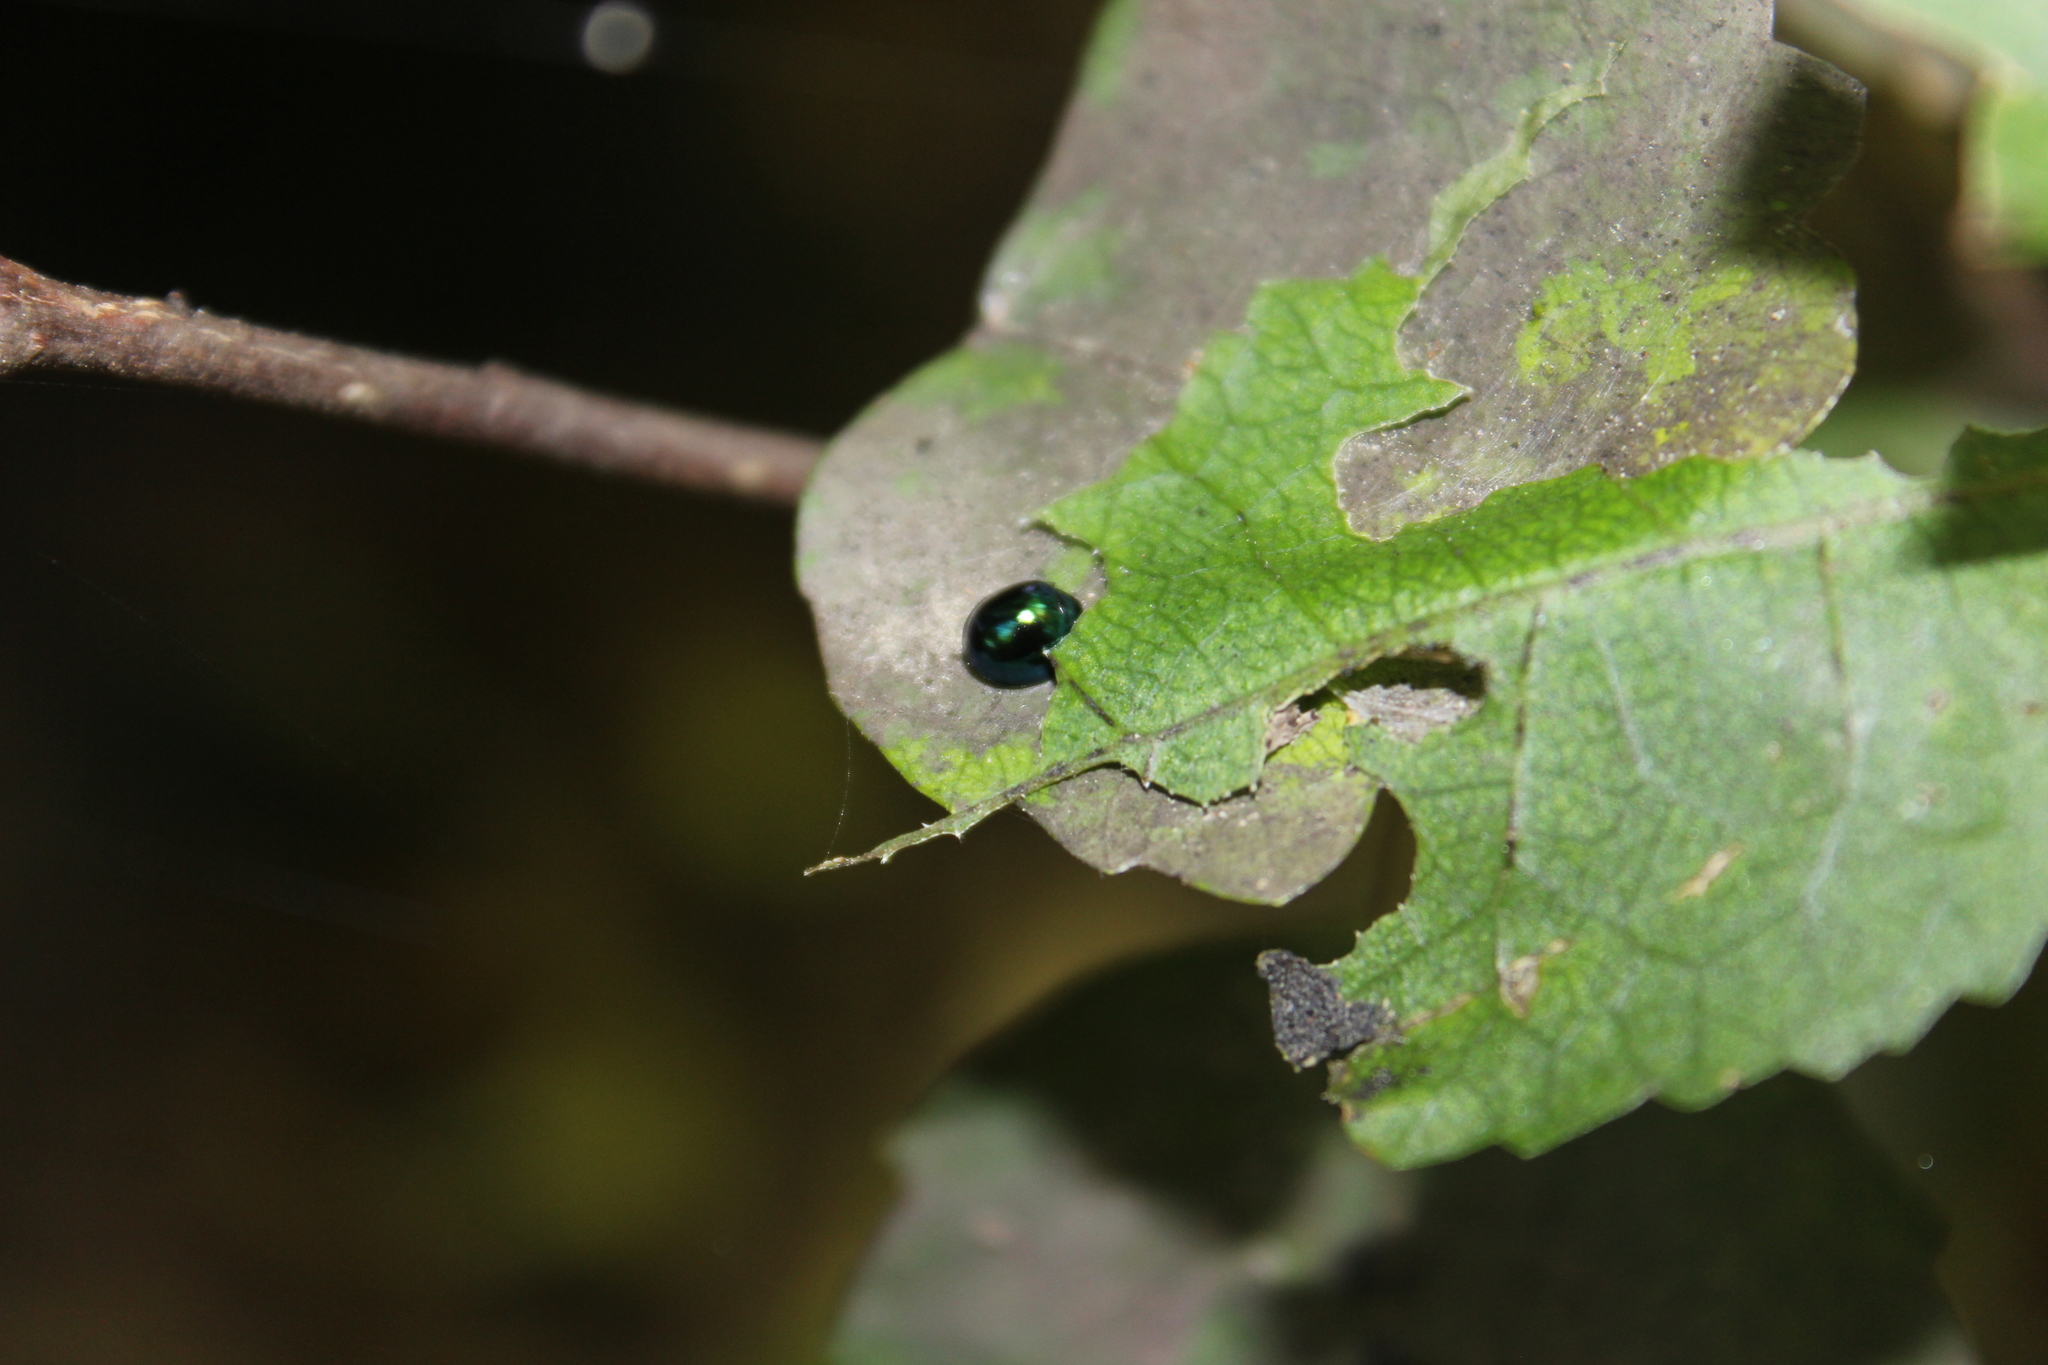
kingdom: Animalia
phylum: Arthropoda
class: Insecta
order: Coleoptera
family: Coccinellidae
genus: Halmus
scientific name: Halmus chalybeus
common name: Steel blue ladybird beetle
